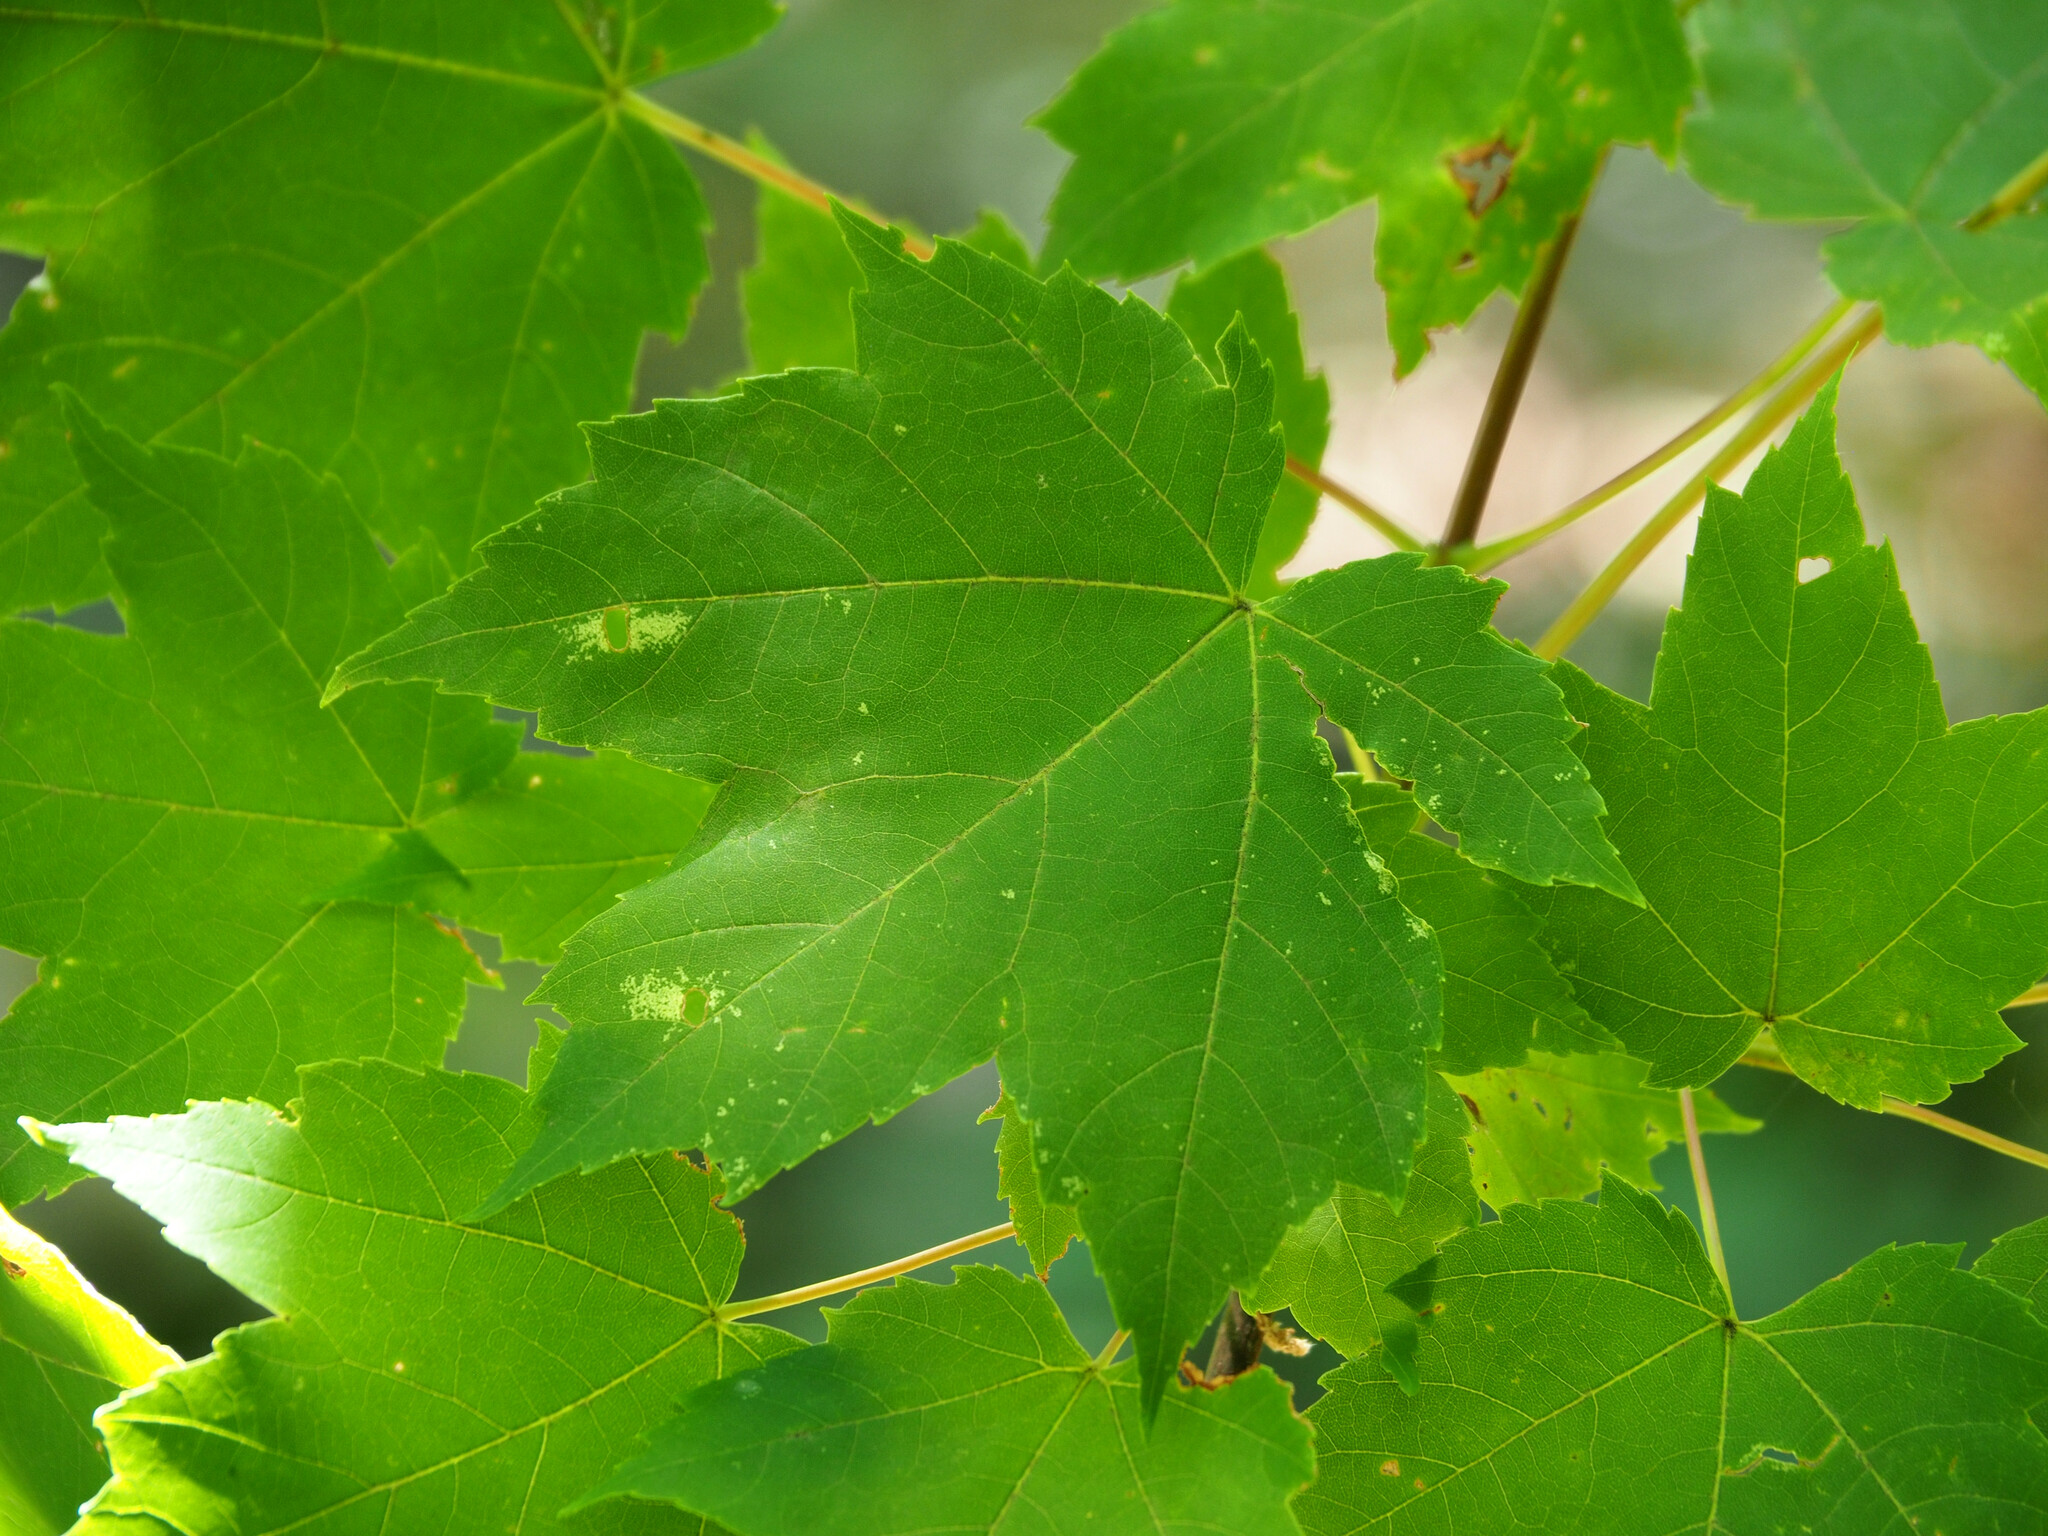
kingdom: Plantae
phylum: Tracheophyta
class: Magnoliopsida
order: Sapindales
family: Sapindaceae
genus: Acer
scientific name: Acer rubrum
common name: Red maple
